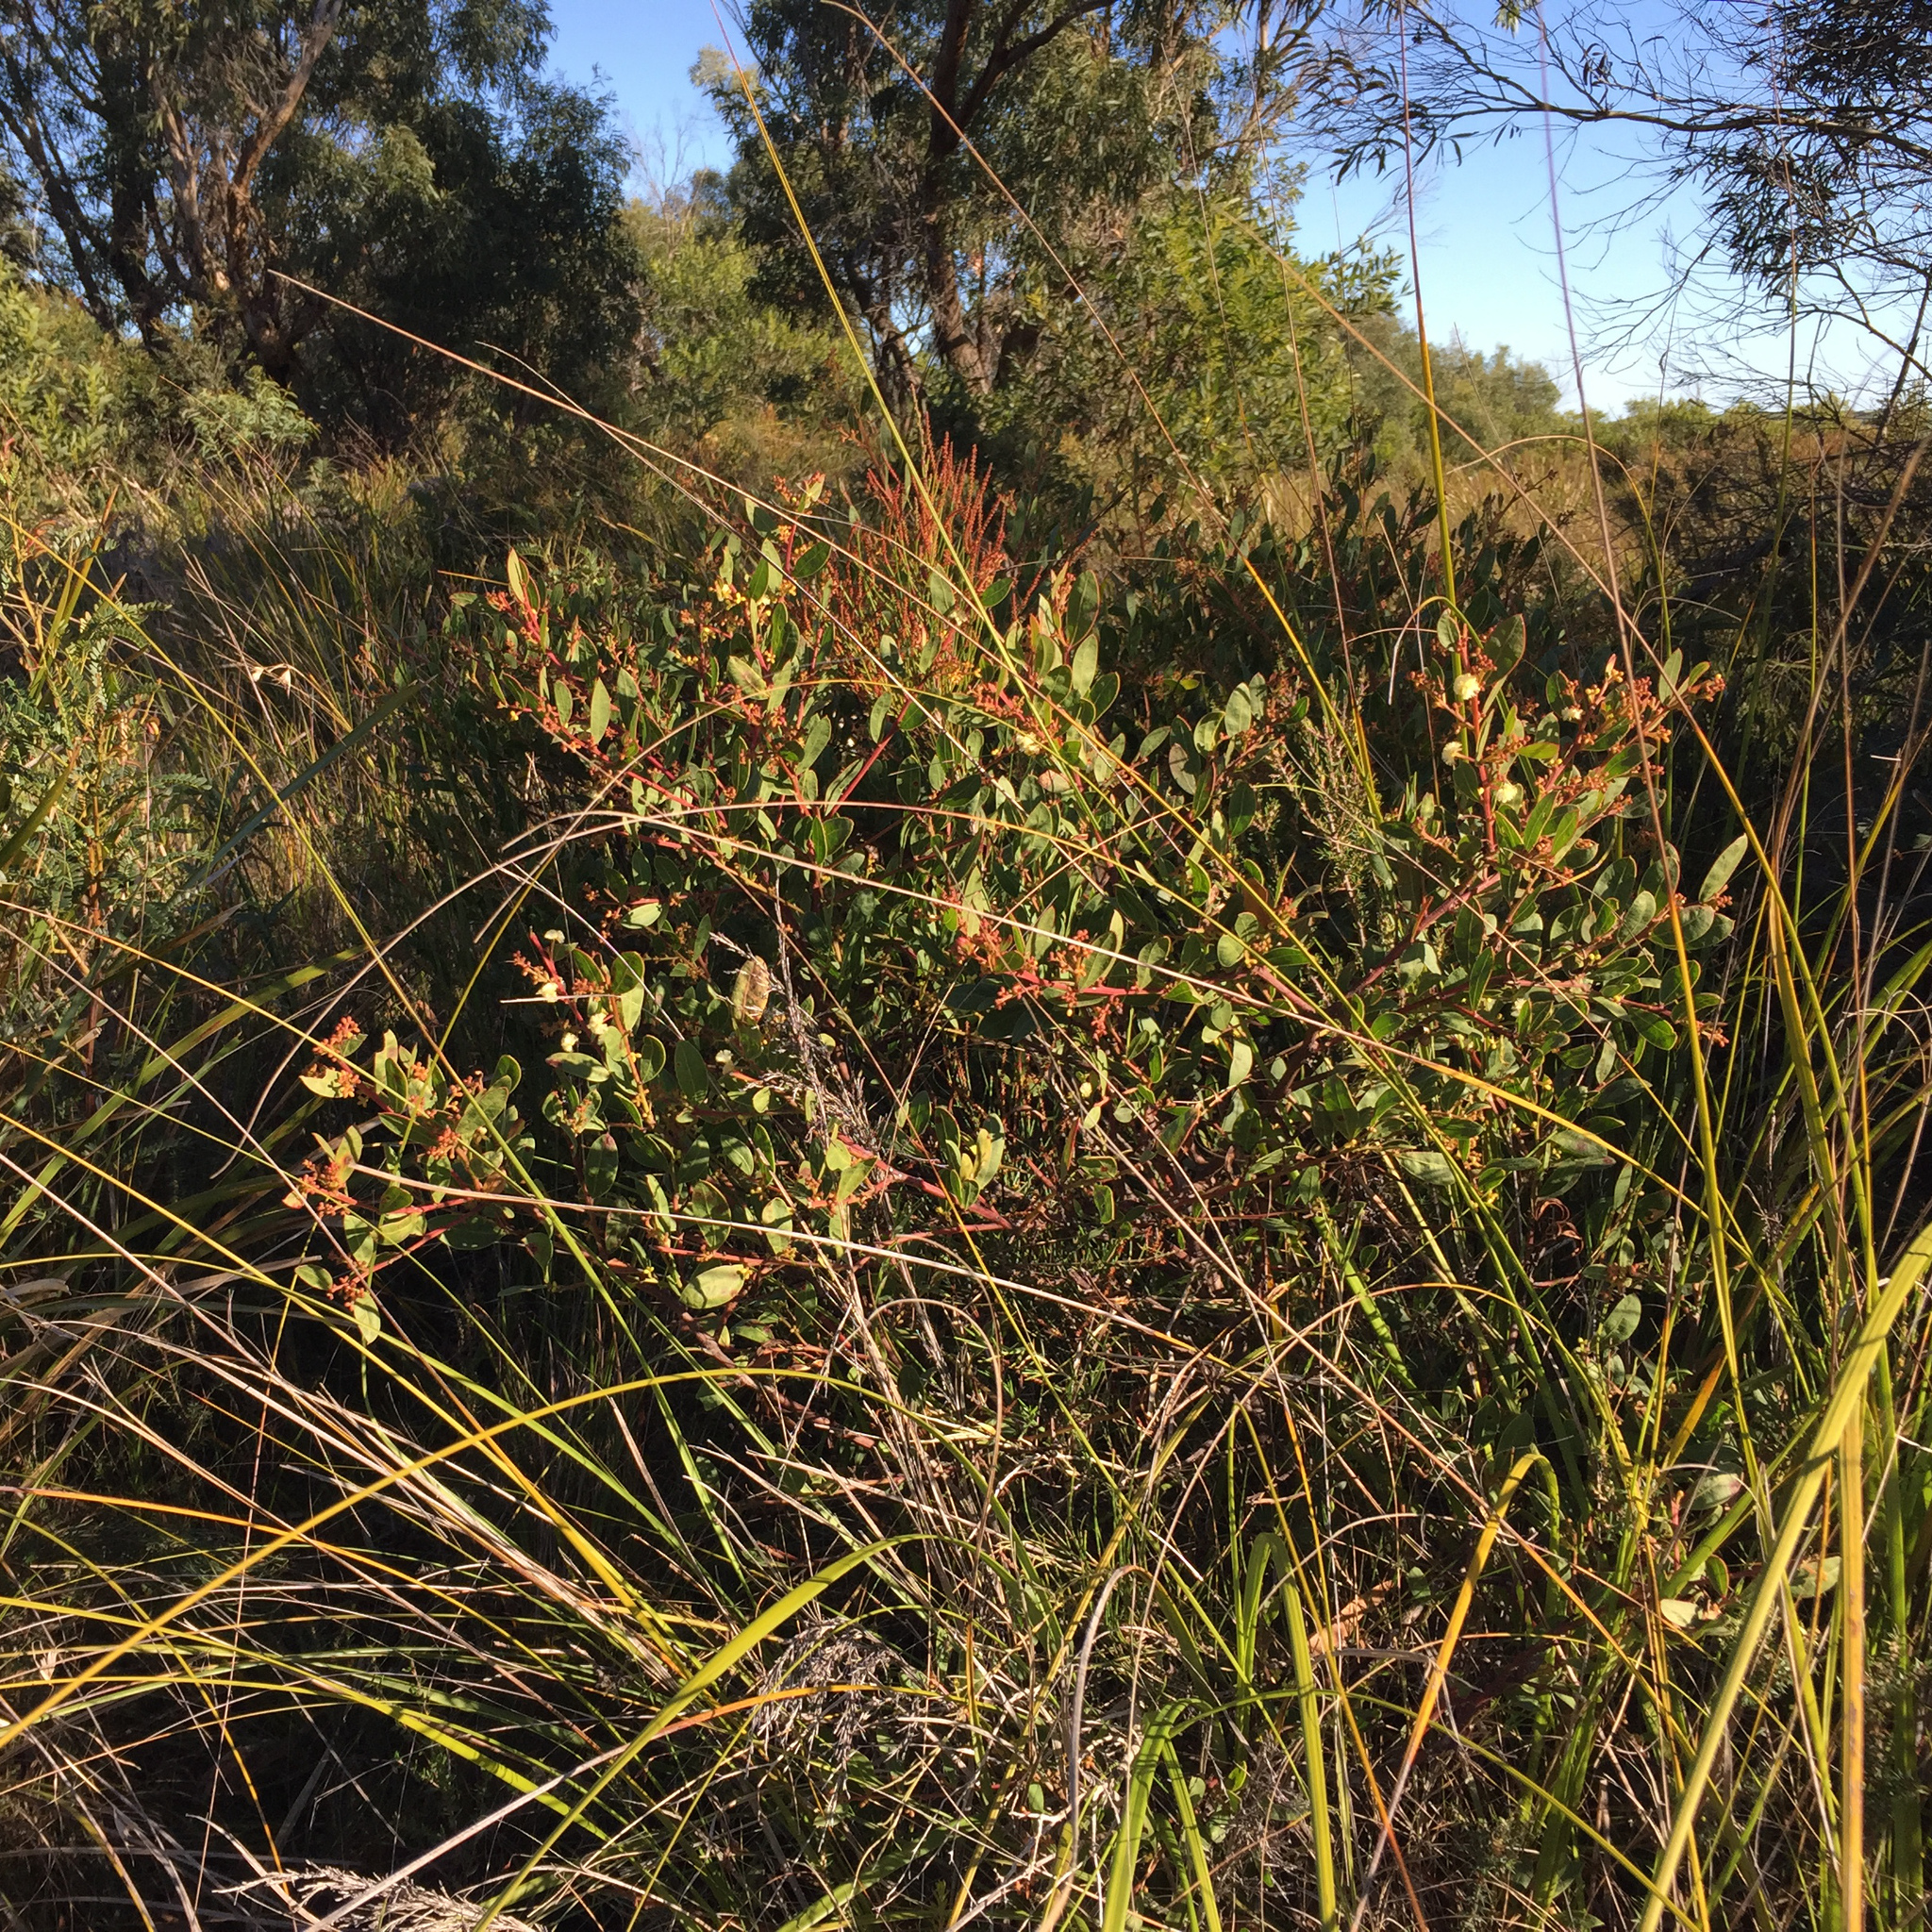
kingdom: Plantae
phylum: Tracheophyta
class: Magnoliopsida
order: Fabales
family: Fabaceae
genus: Acacia
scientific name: Acacia myrtifolia
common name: Myrtle wattle
